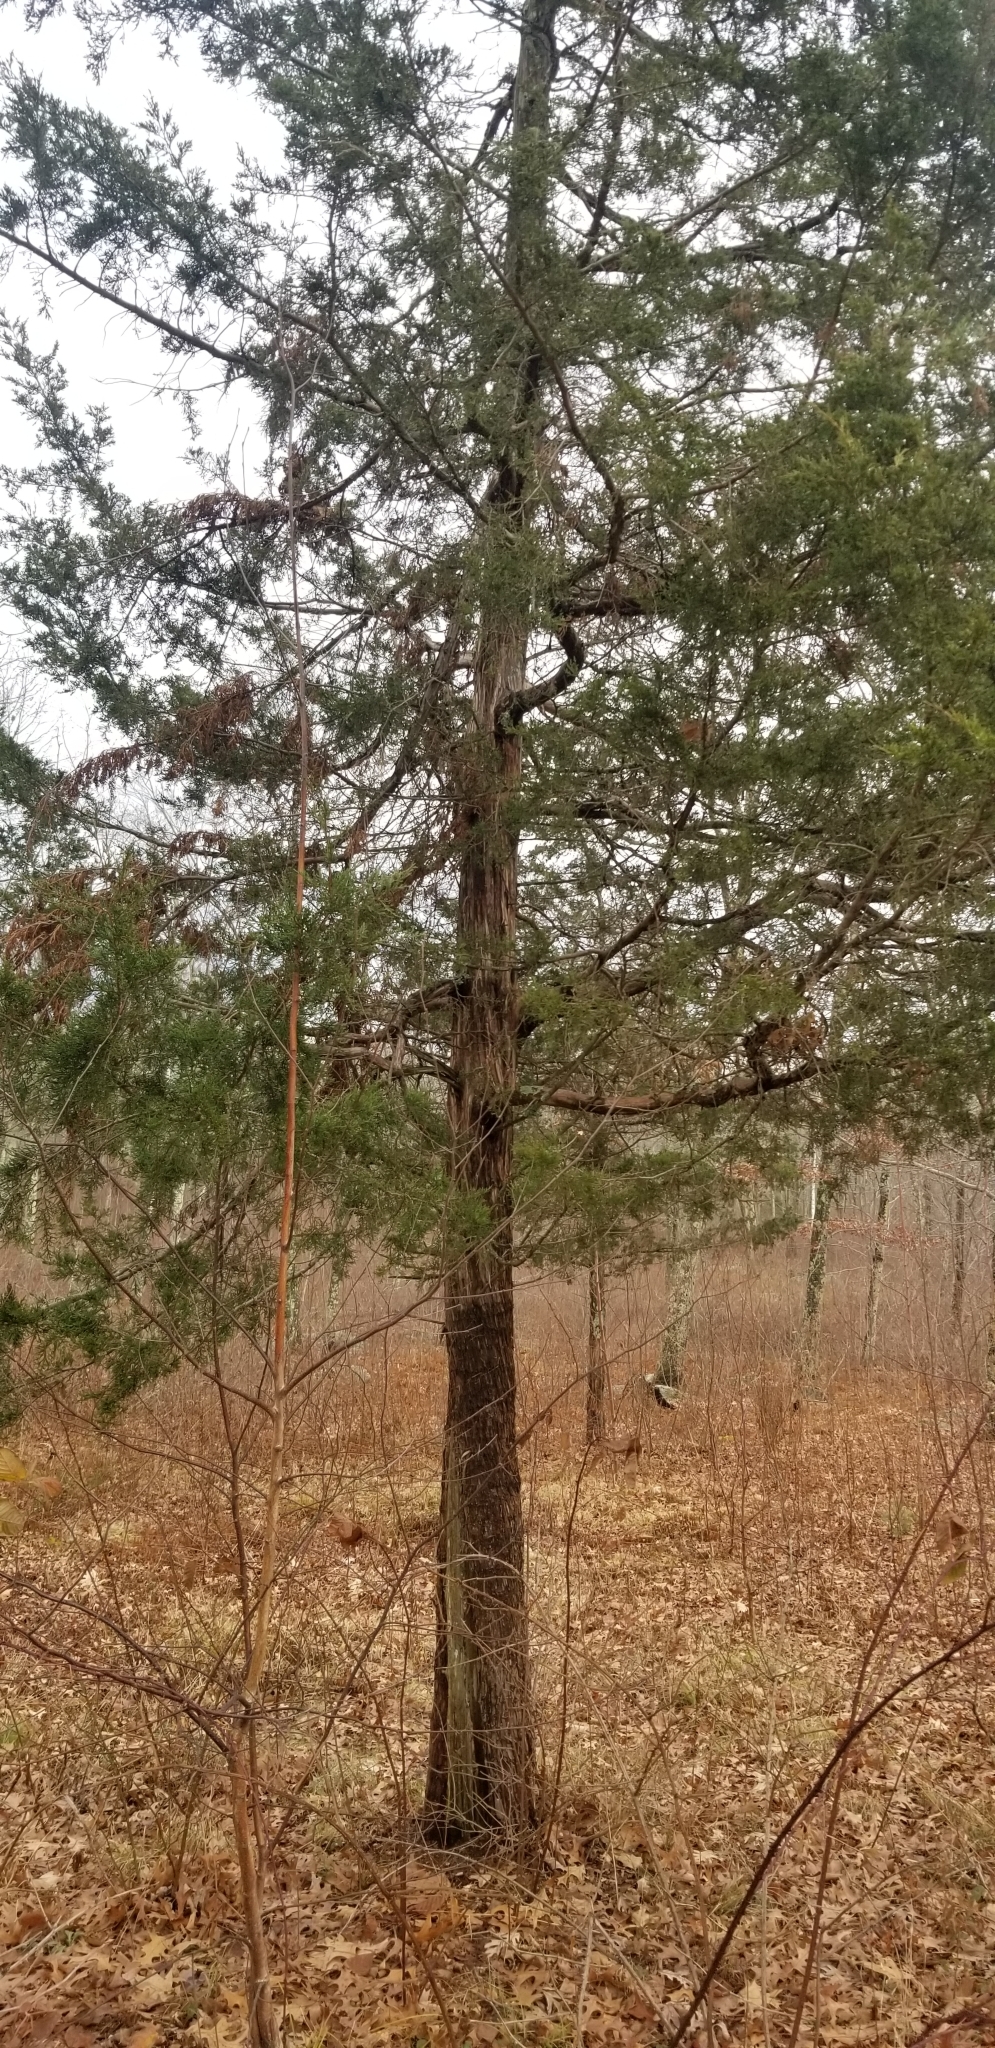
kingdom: Plantae
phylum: Tracheophyta
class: Pinopsida
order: Pinales
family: Cupressaceae
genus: Juniperus
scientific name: Juniperus virginiana
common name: Red juniper
